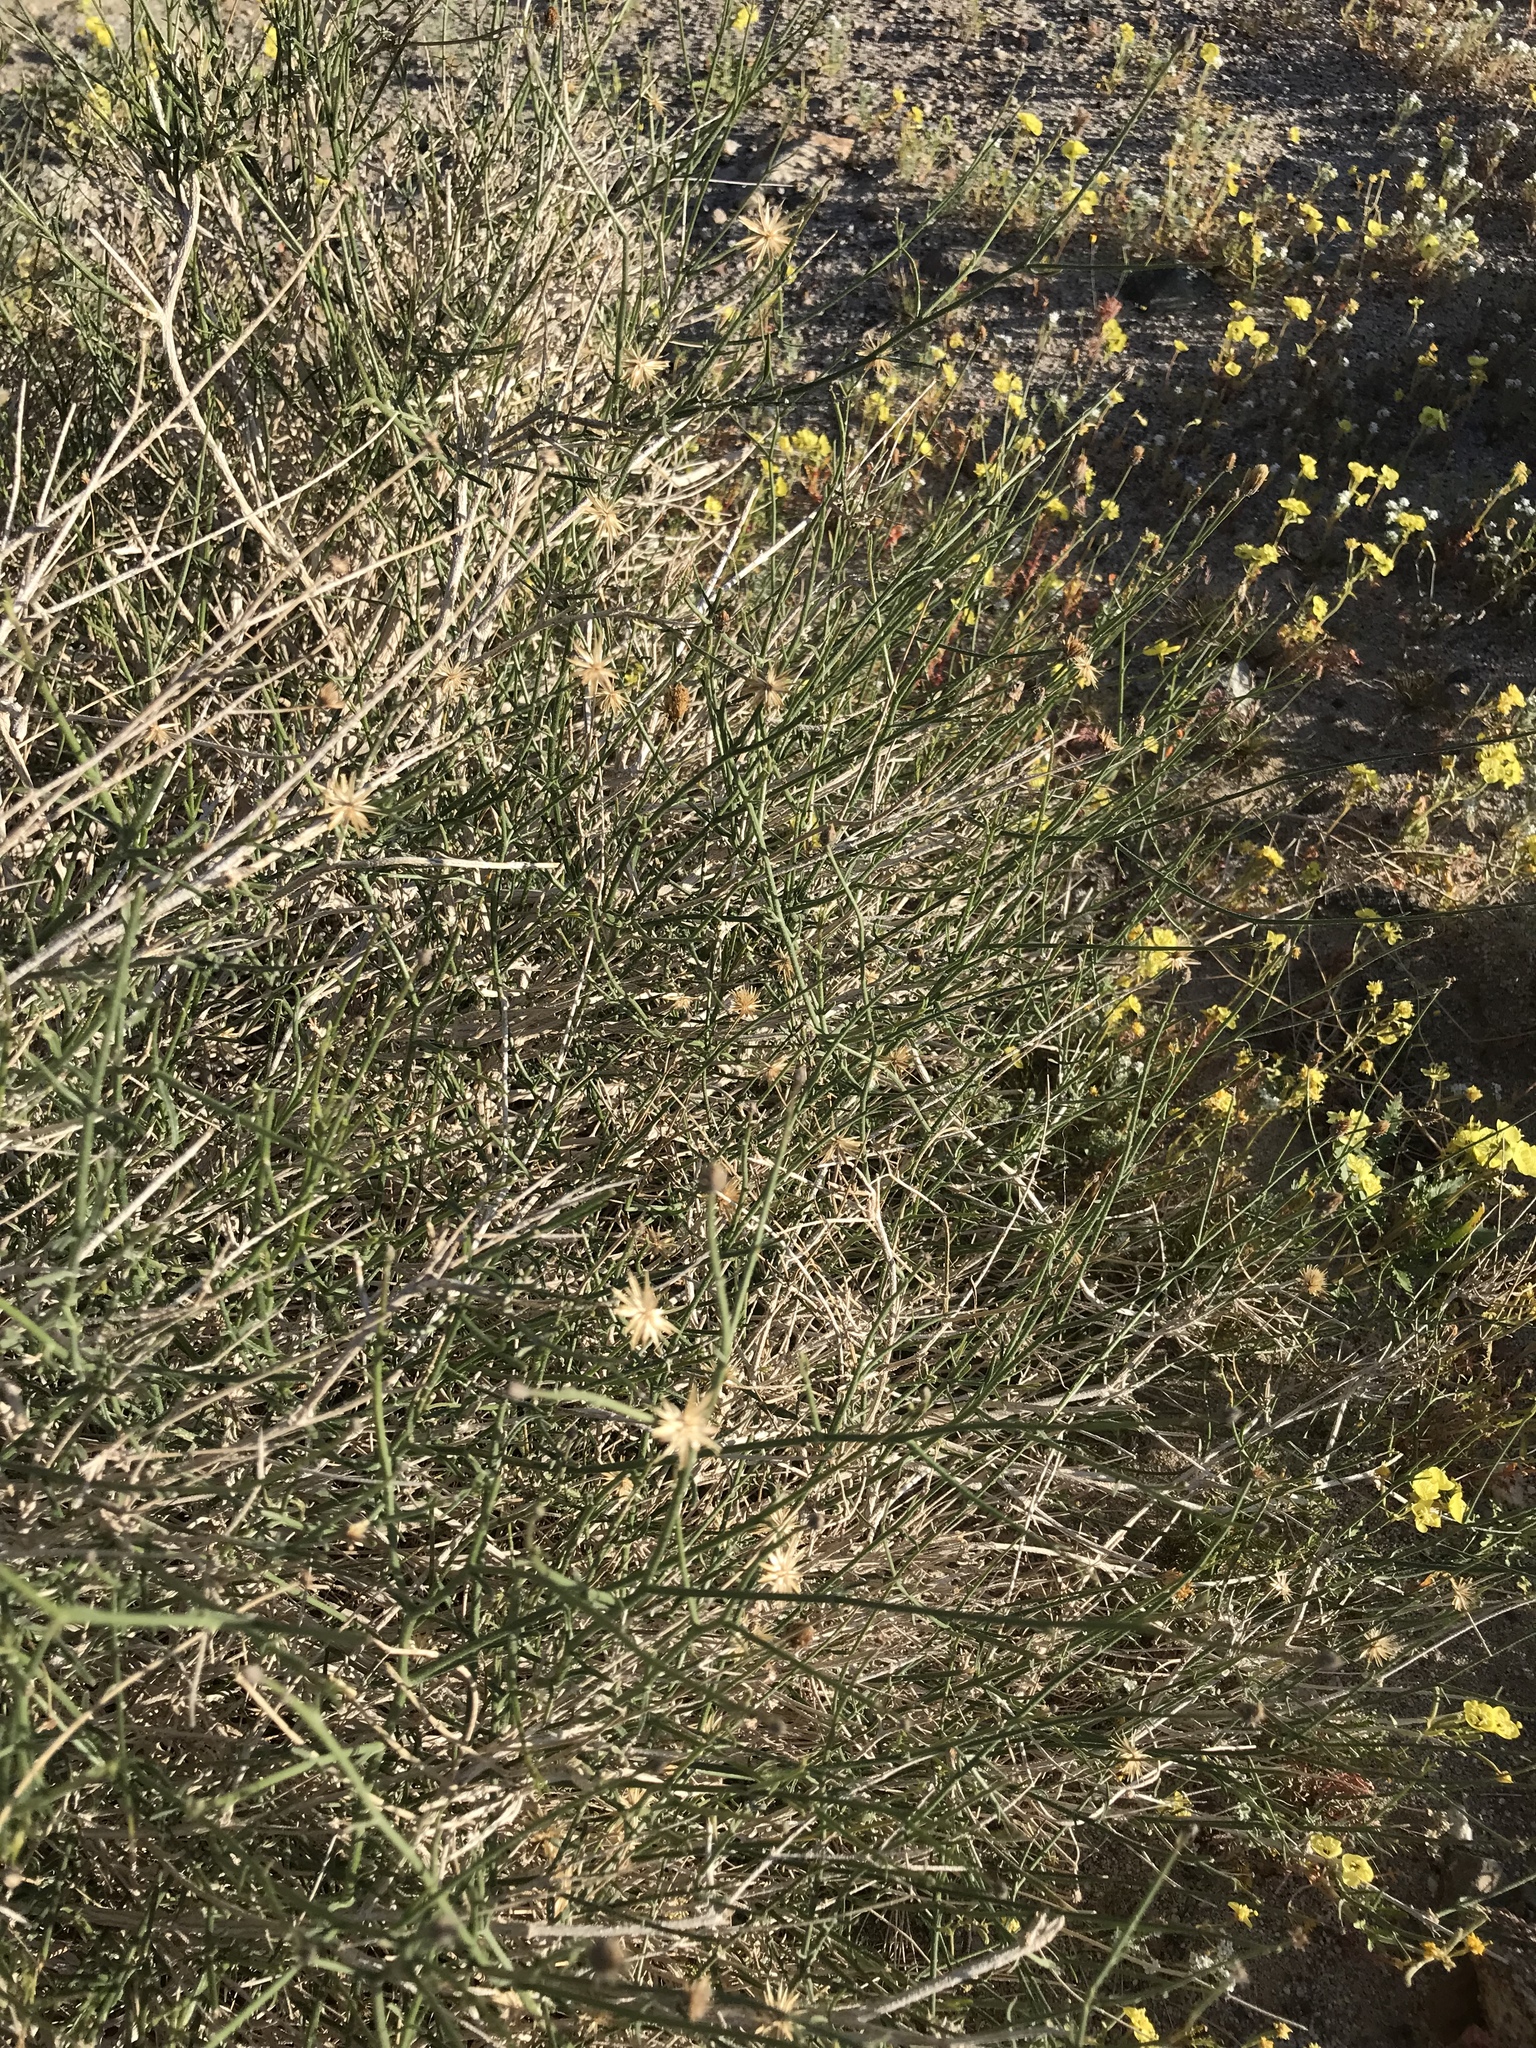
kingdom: Plantae
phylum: Tracheophyta
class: Magnoliopsida
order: Asterales
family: Asteraceae
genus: Bebbia
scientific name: Bebbia juncea
